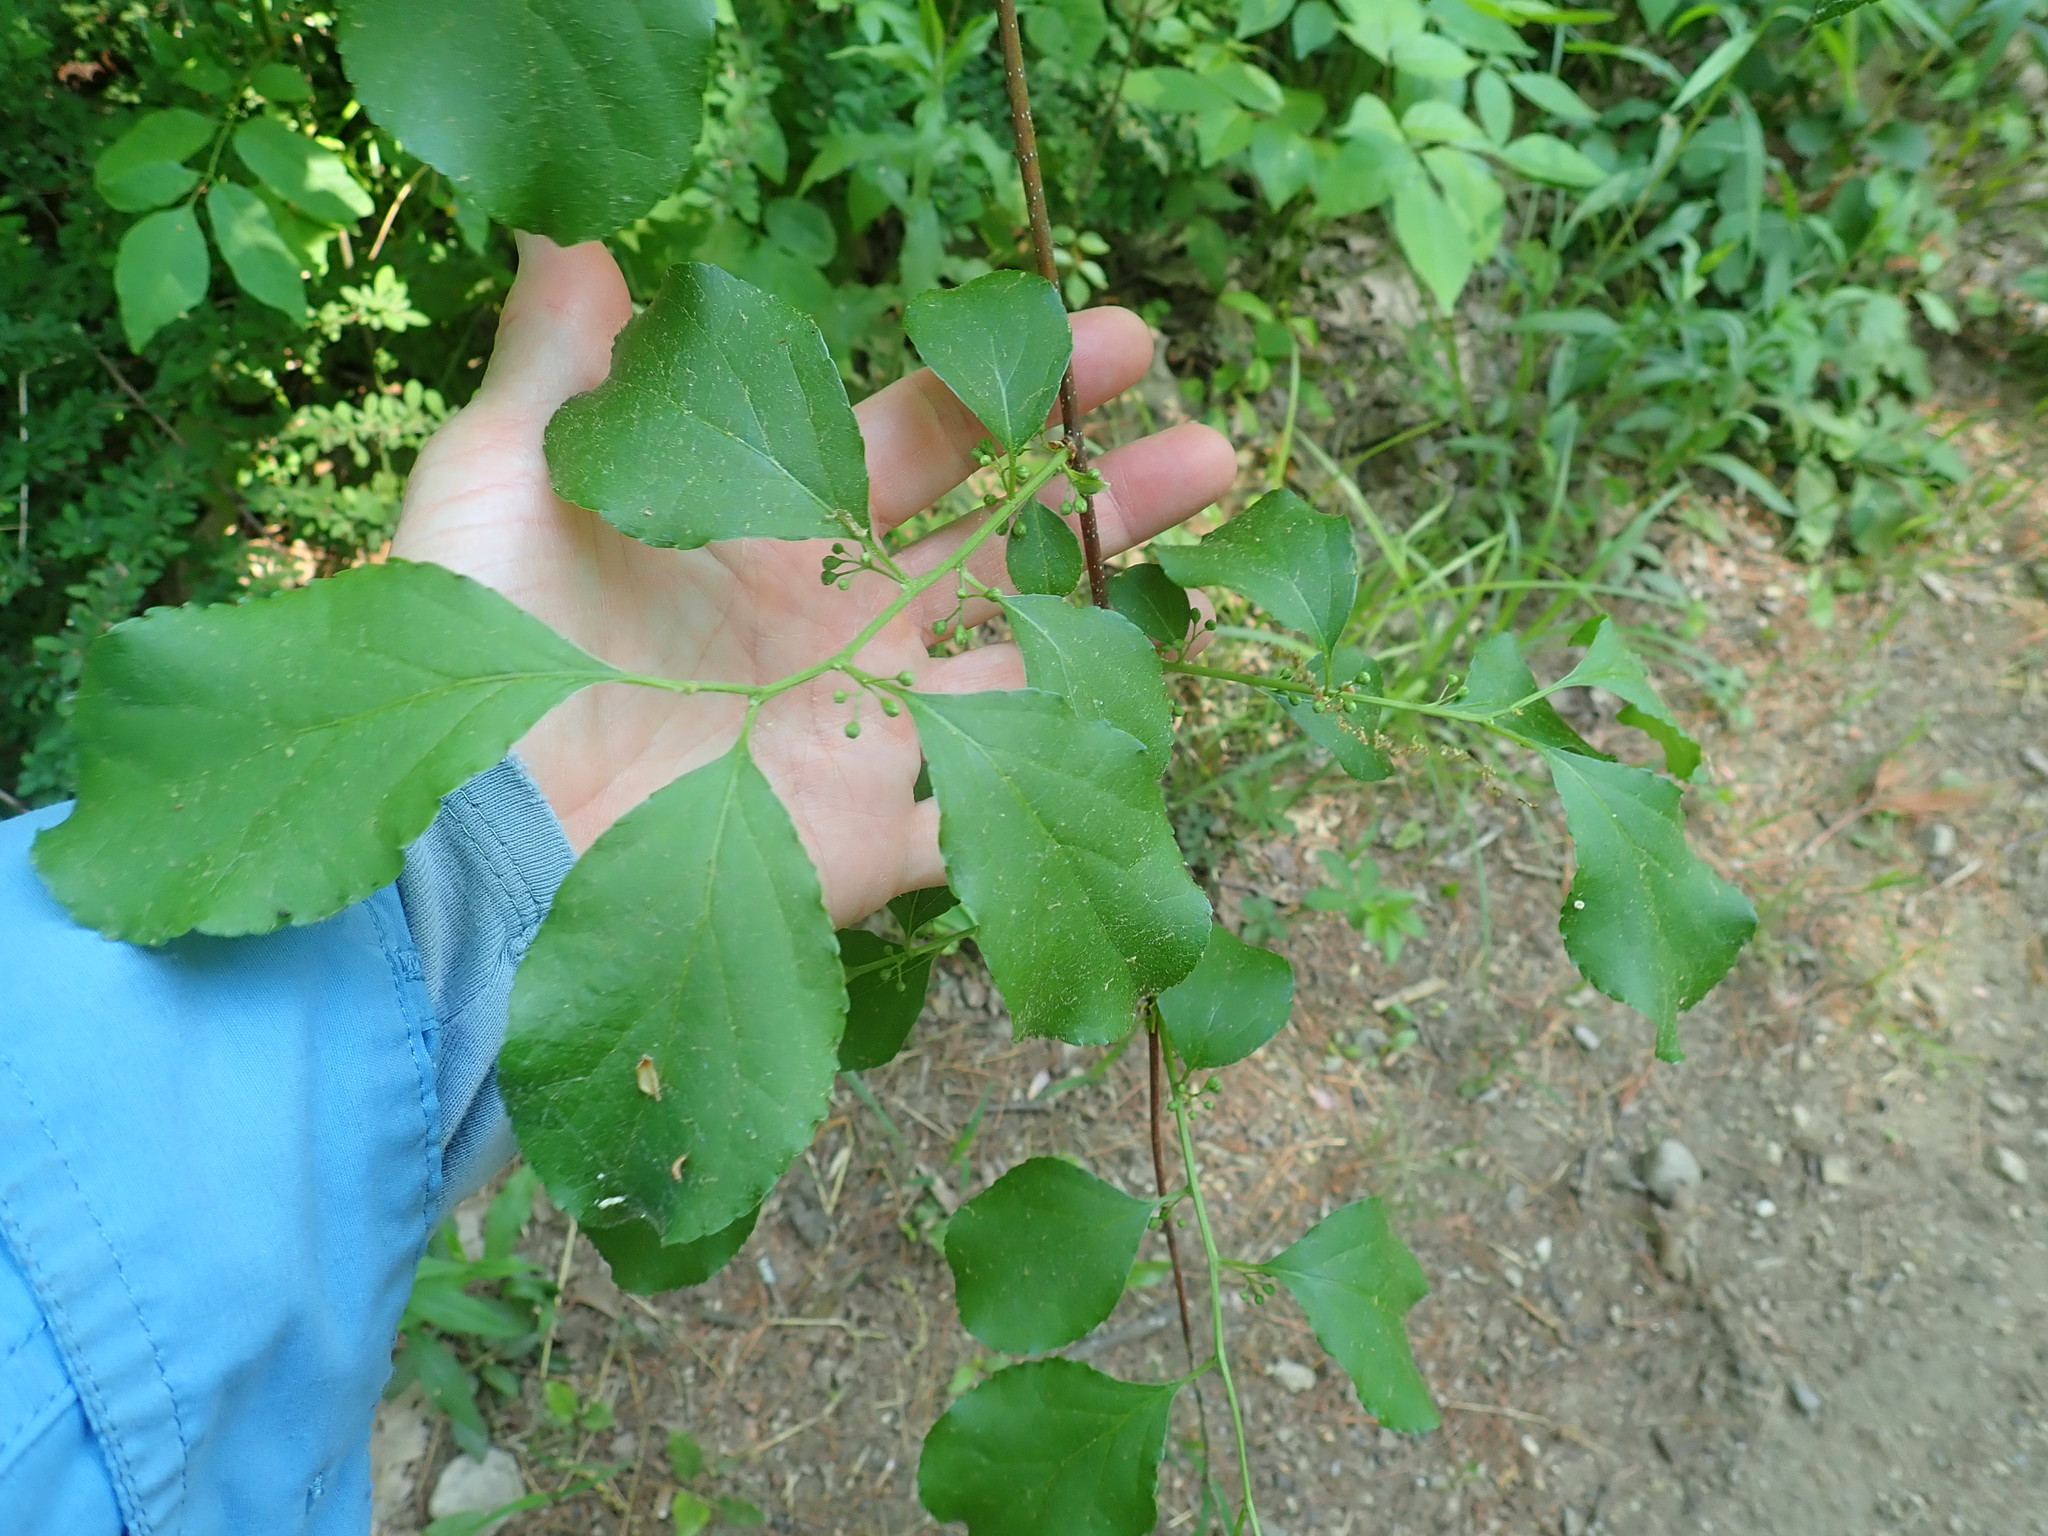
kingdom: Plantae
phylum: Tracheophyta
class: Magnoliopsida
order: Celastrales
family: Celastraceae
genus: Celastrus
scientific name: Celastrus orbiculatus
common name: Oriental bittersweet
